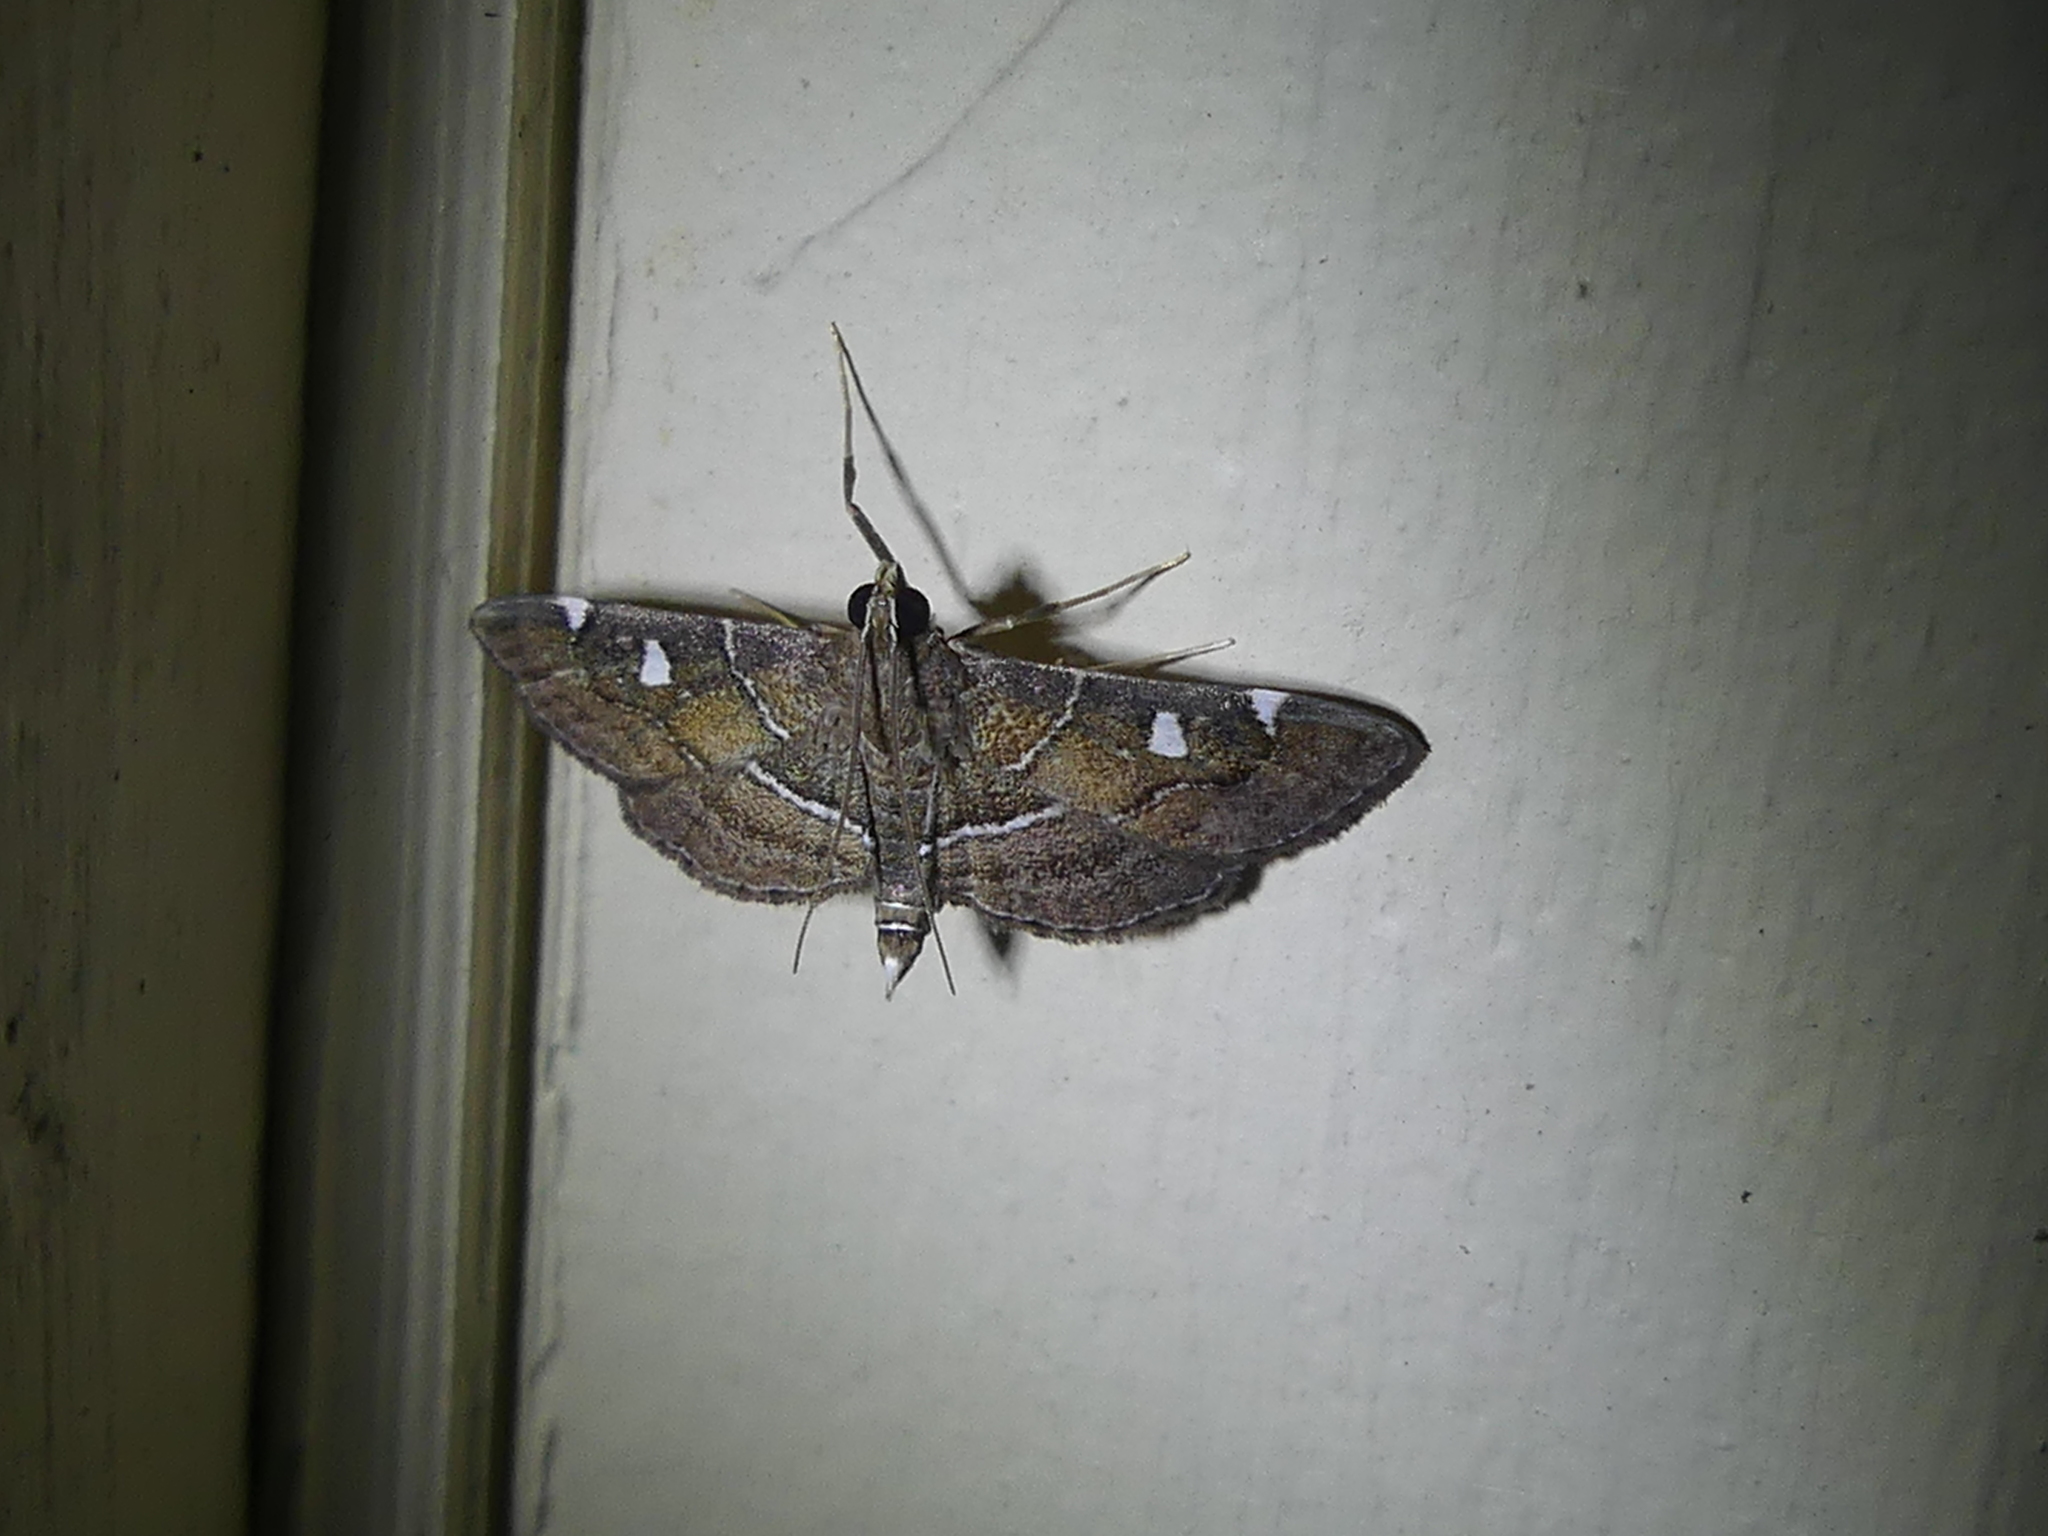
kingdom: Animalia
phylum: Arthropoda
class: Insecta
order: Lepidoptera
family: Crambidae
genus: Lamprosema
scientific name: Lamprosema victoriae
